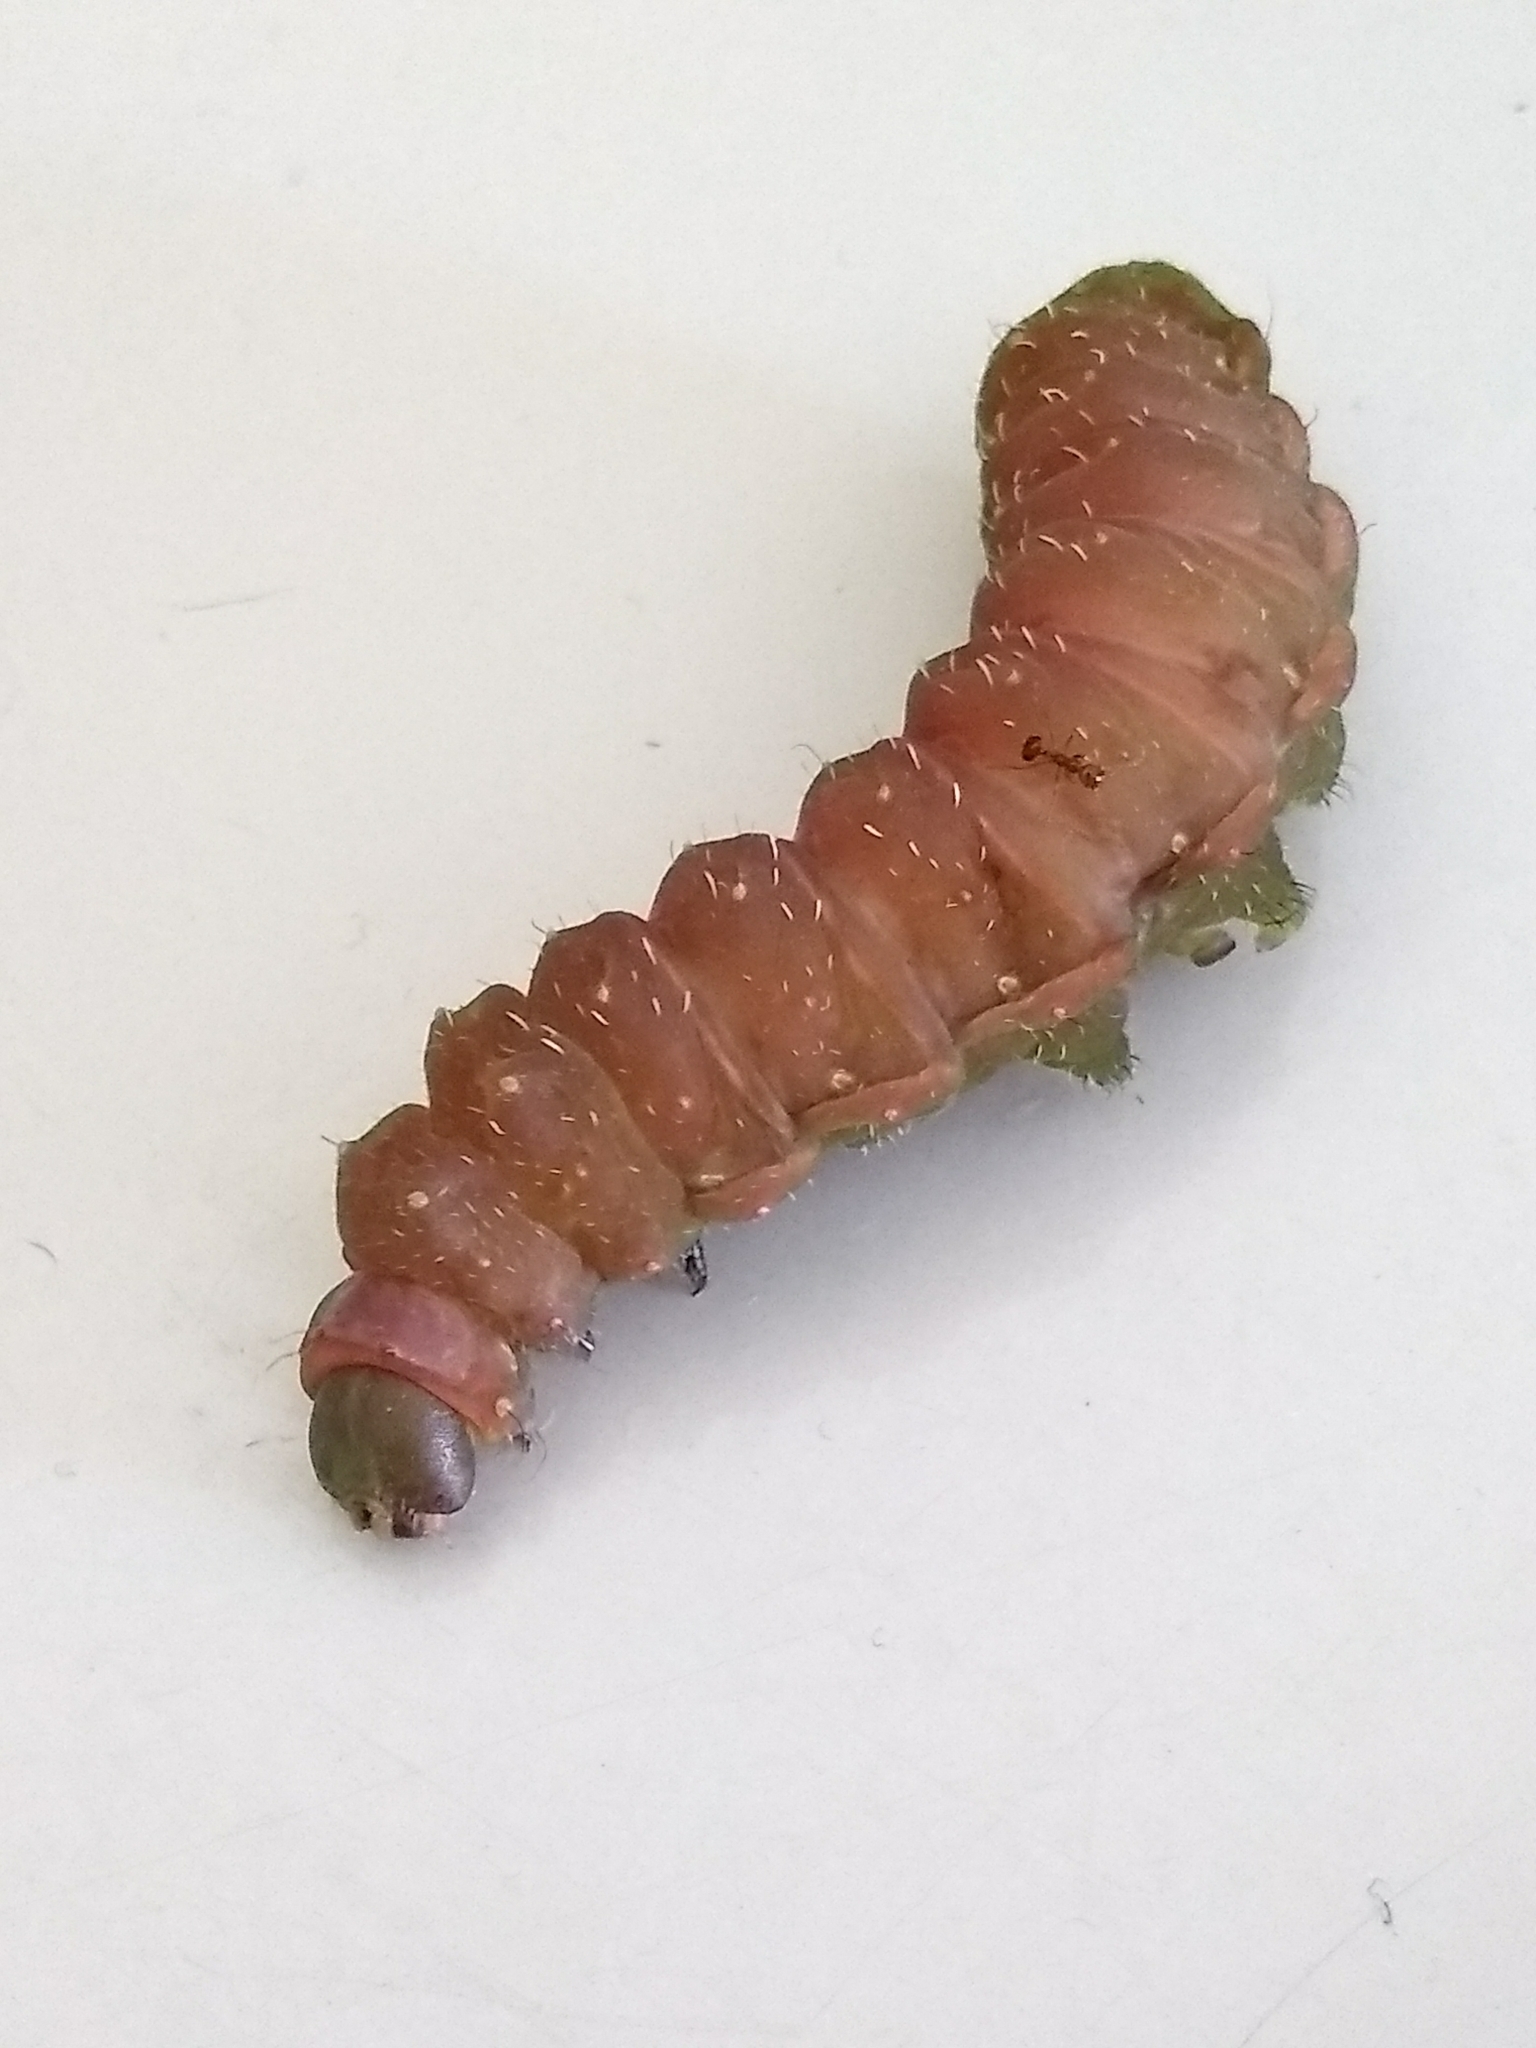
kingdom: Animalia
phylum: Arthropoda
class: Insecta
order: Lepidoptera
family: Saturniidae
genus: Actias
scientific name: Actias luna
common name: Luna moth
